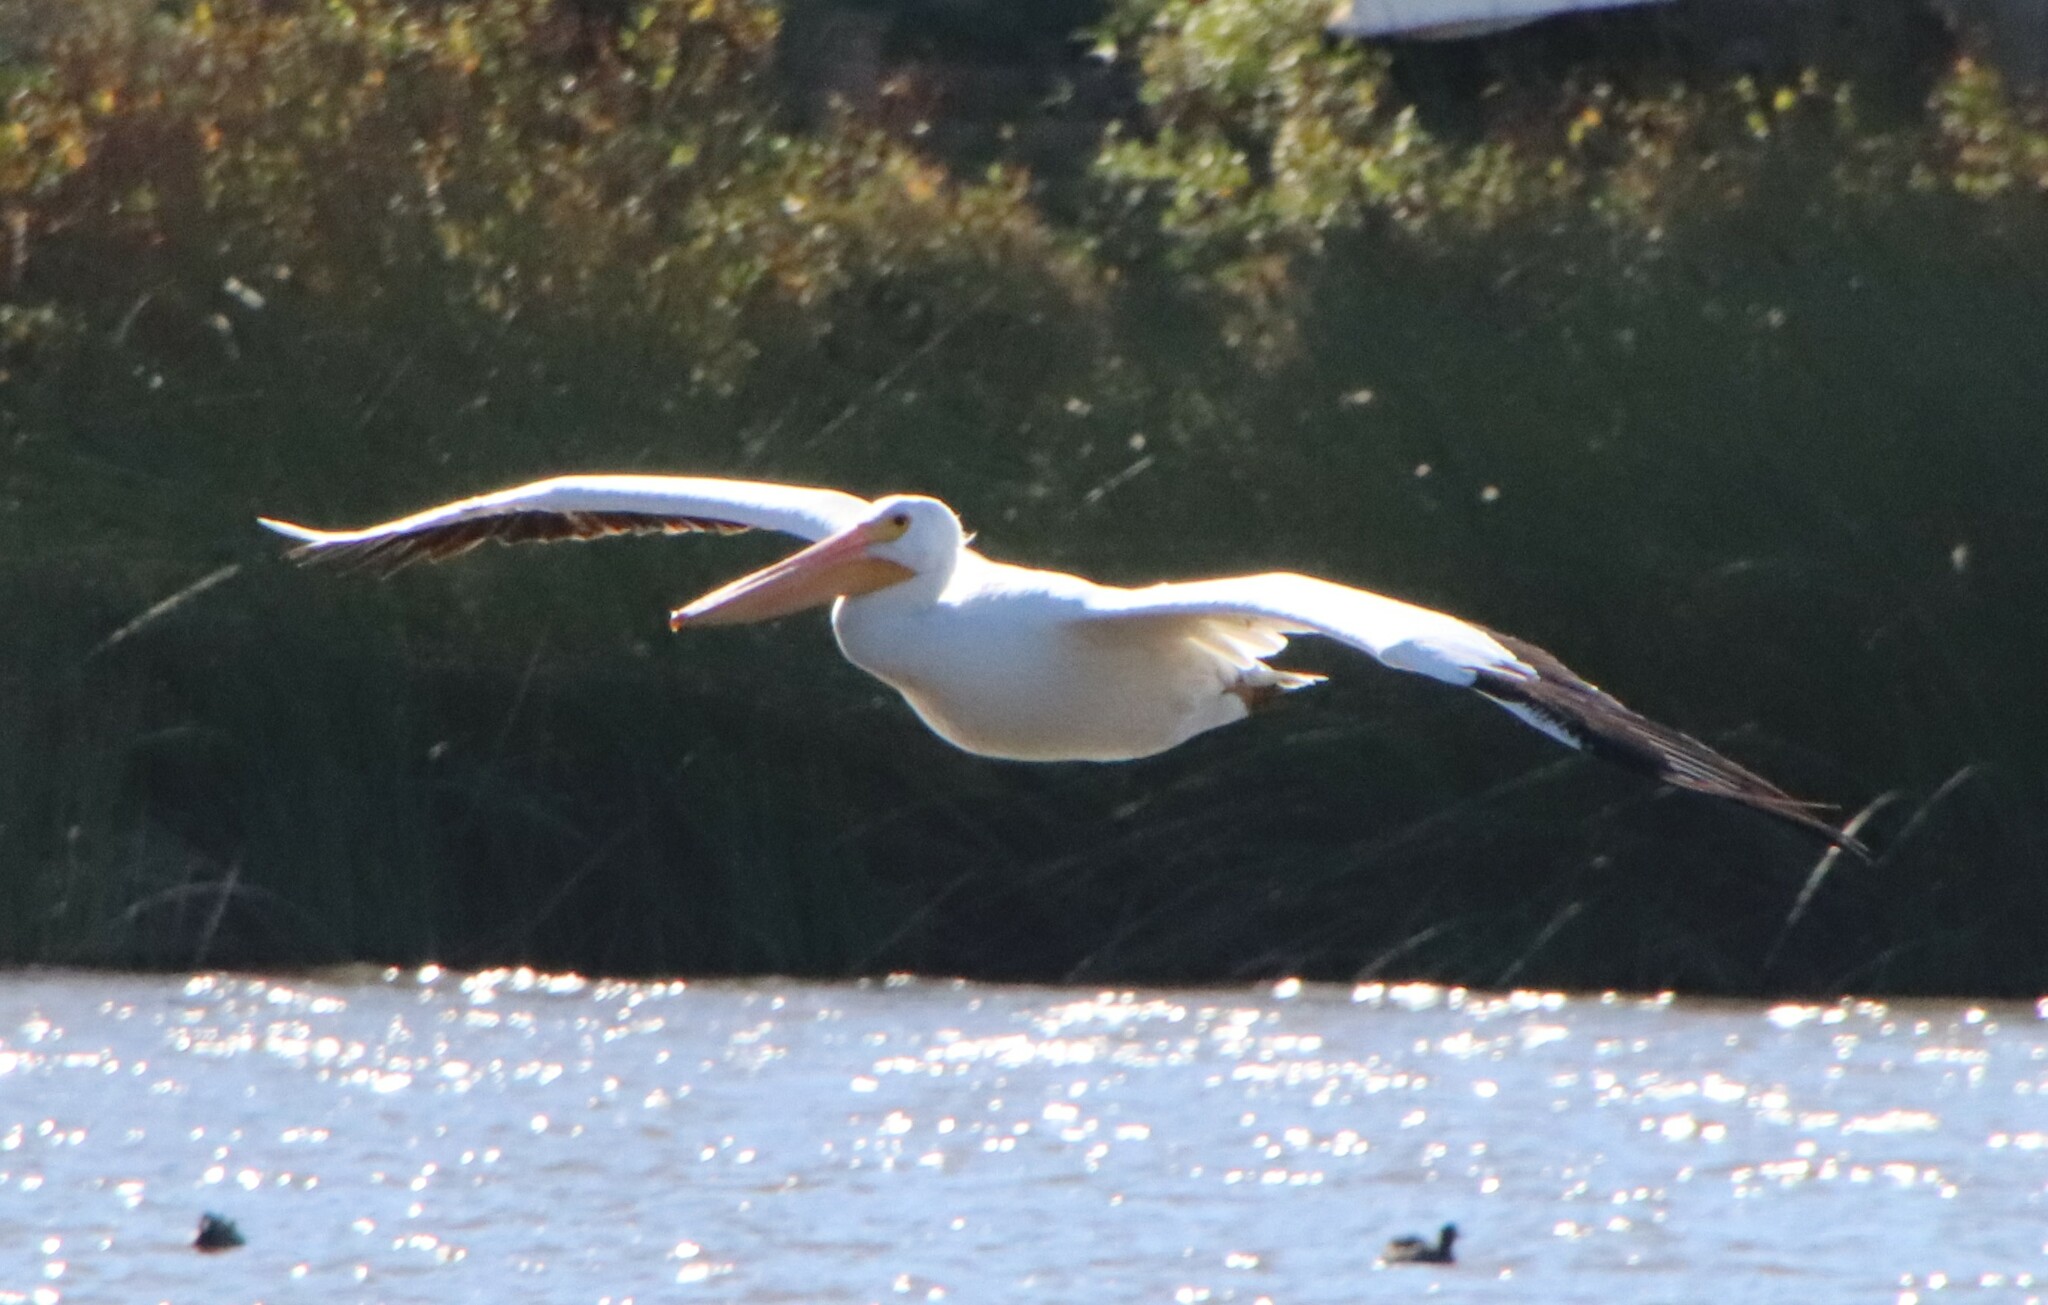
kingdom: Animalia
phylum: Chordata
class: Aves
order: Pelecaniformes
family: Pelecanidae
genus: Pelecanus
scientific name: Pelecanus erythrorhynchos
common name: American white pelican
